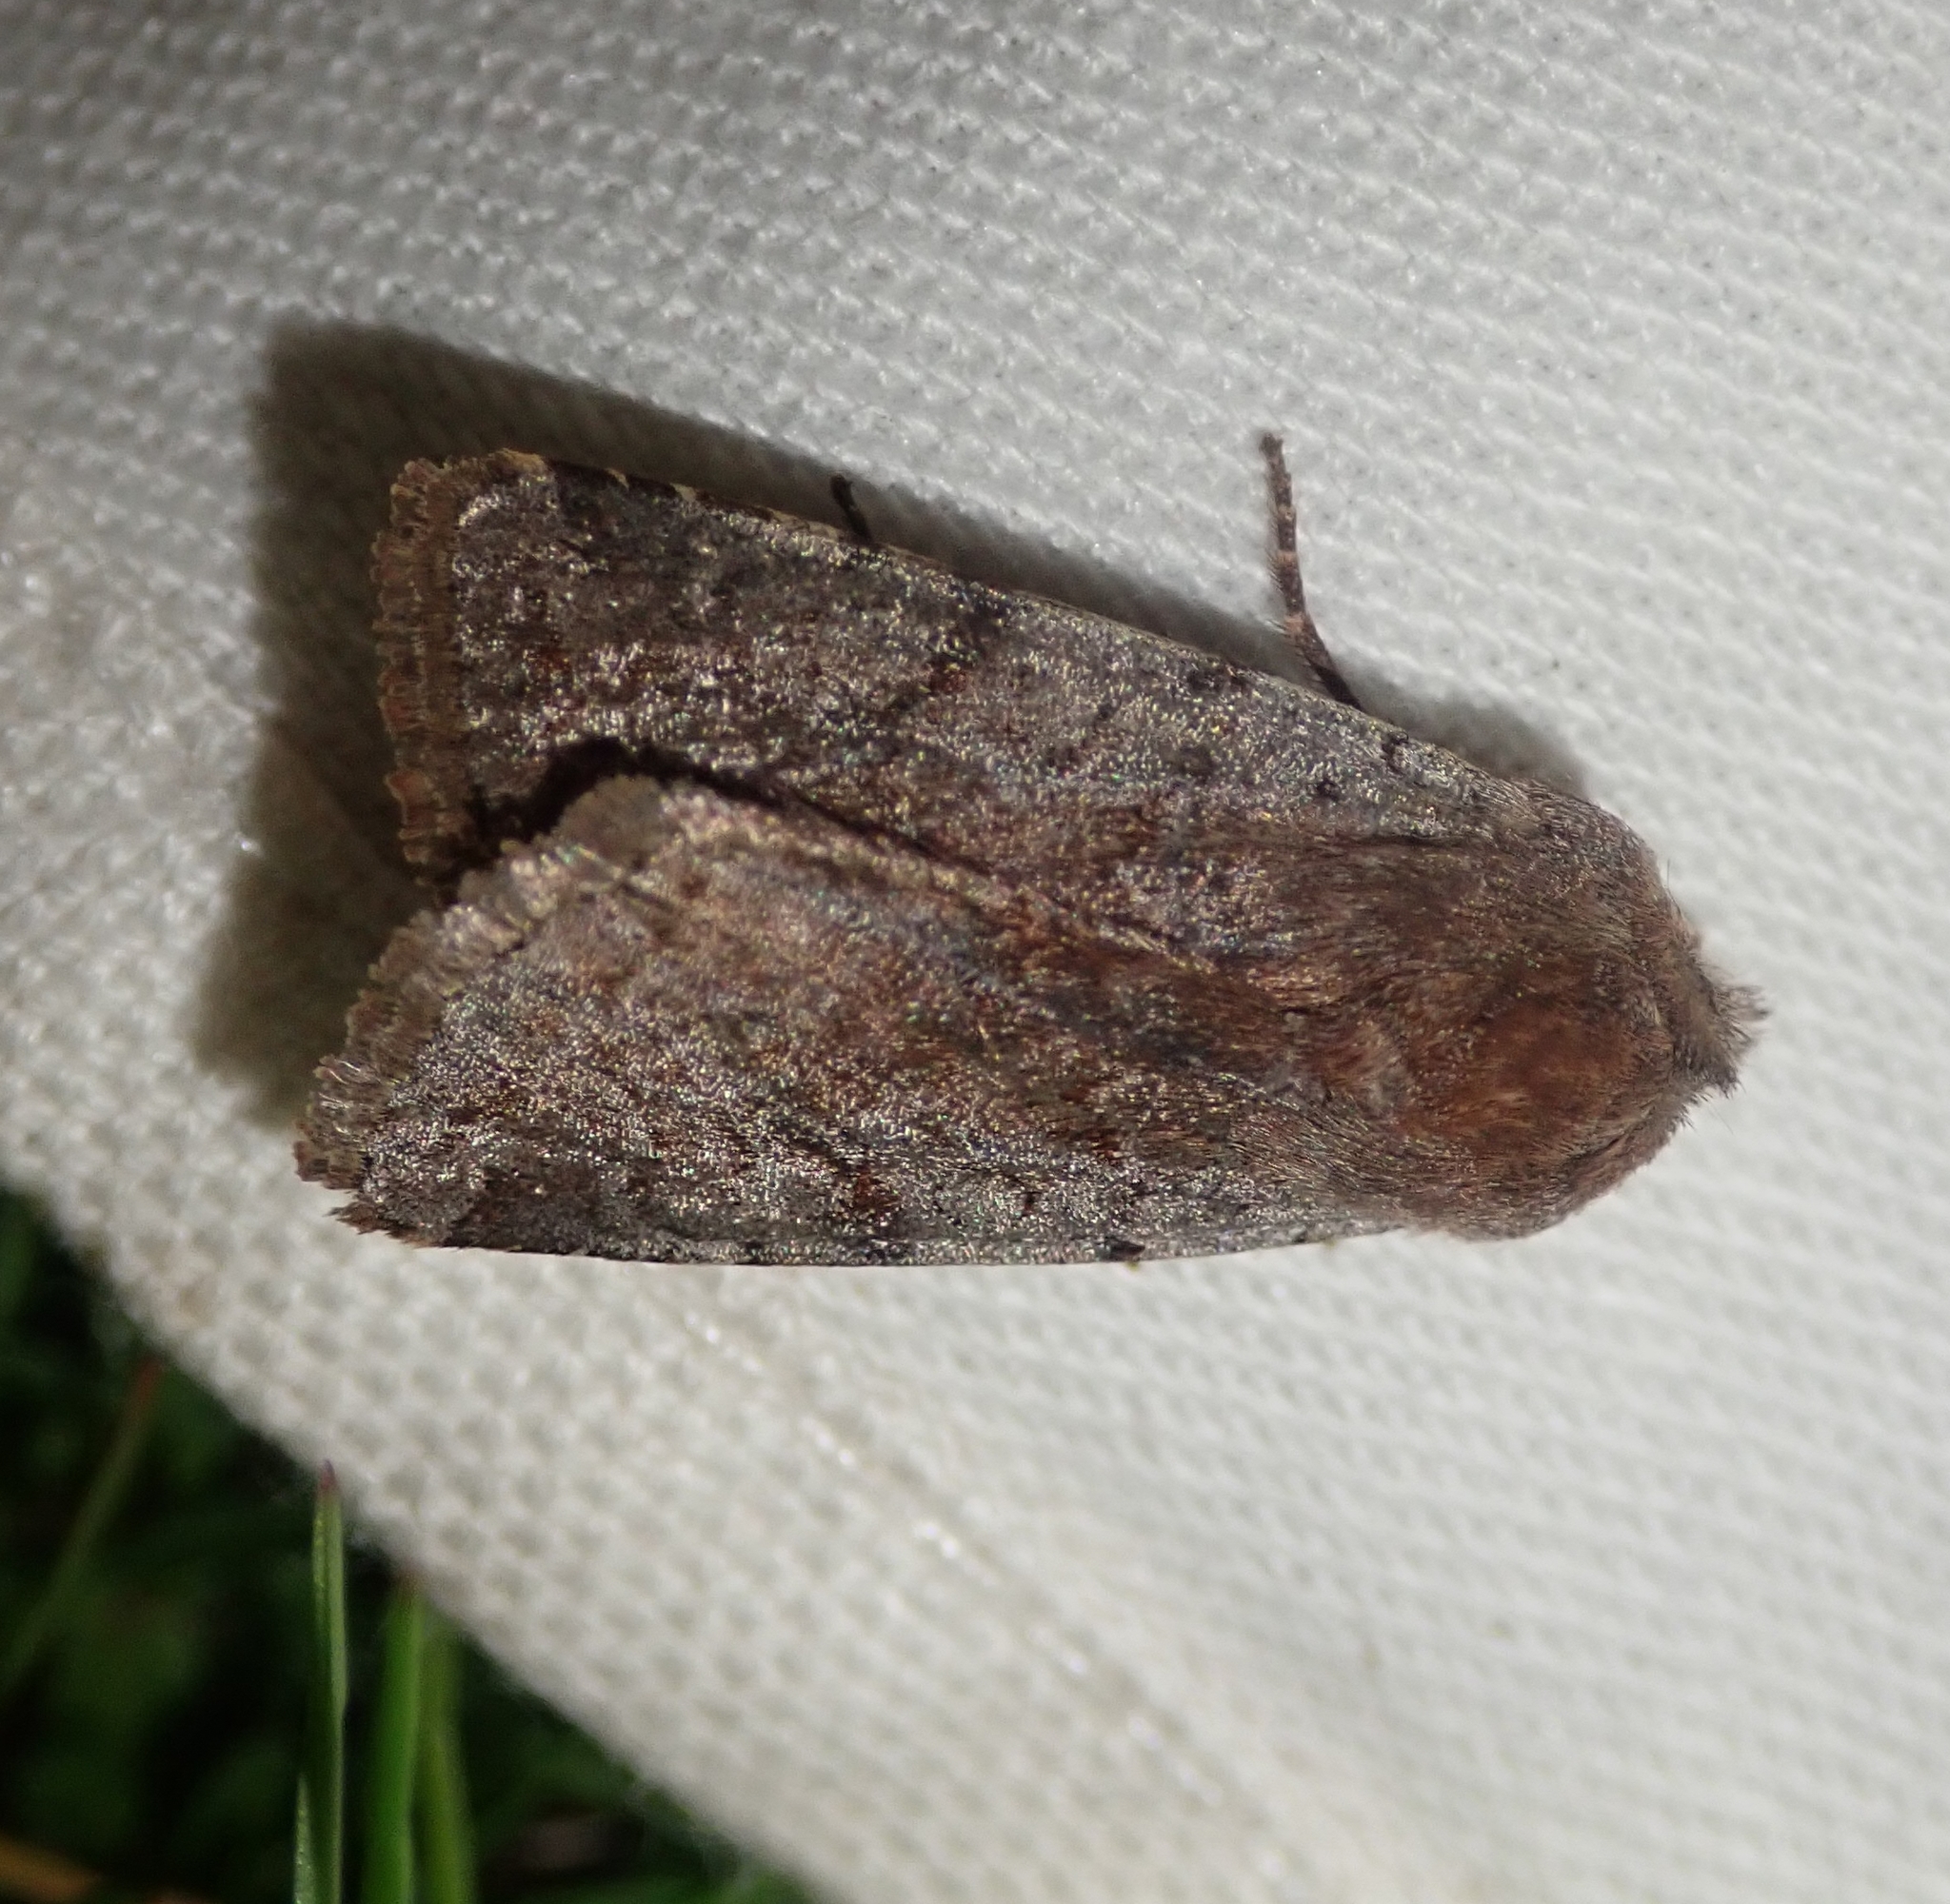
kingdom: Animalia
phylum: Arthropoda
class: Insecta
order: Lepidoptera
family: Noctuidae
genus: Cerastis
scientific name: Cerastis rubricosa
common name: Red chestnut
